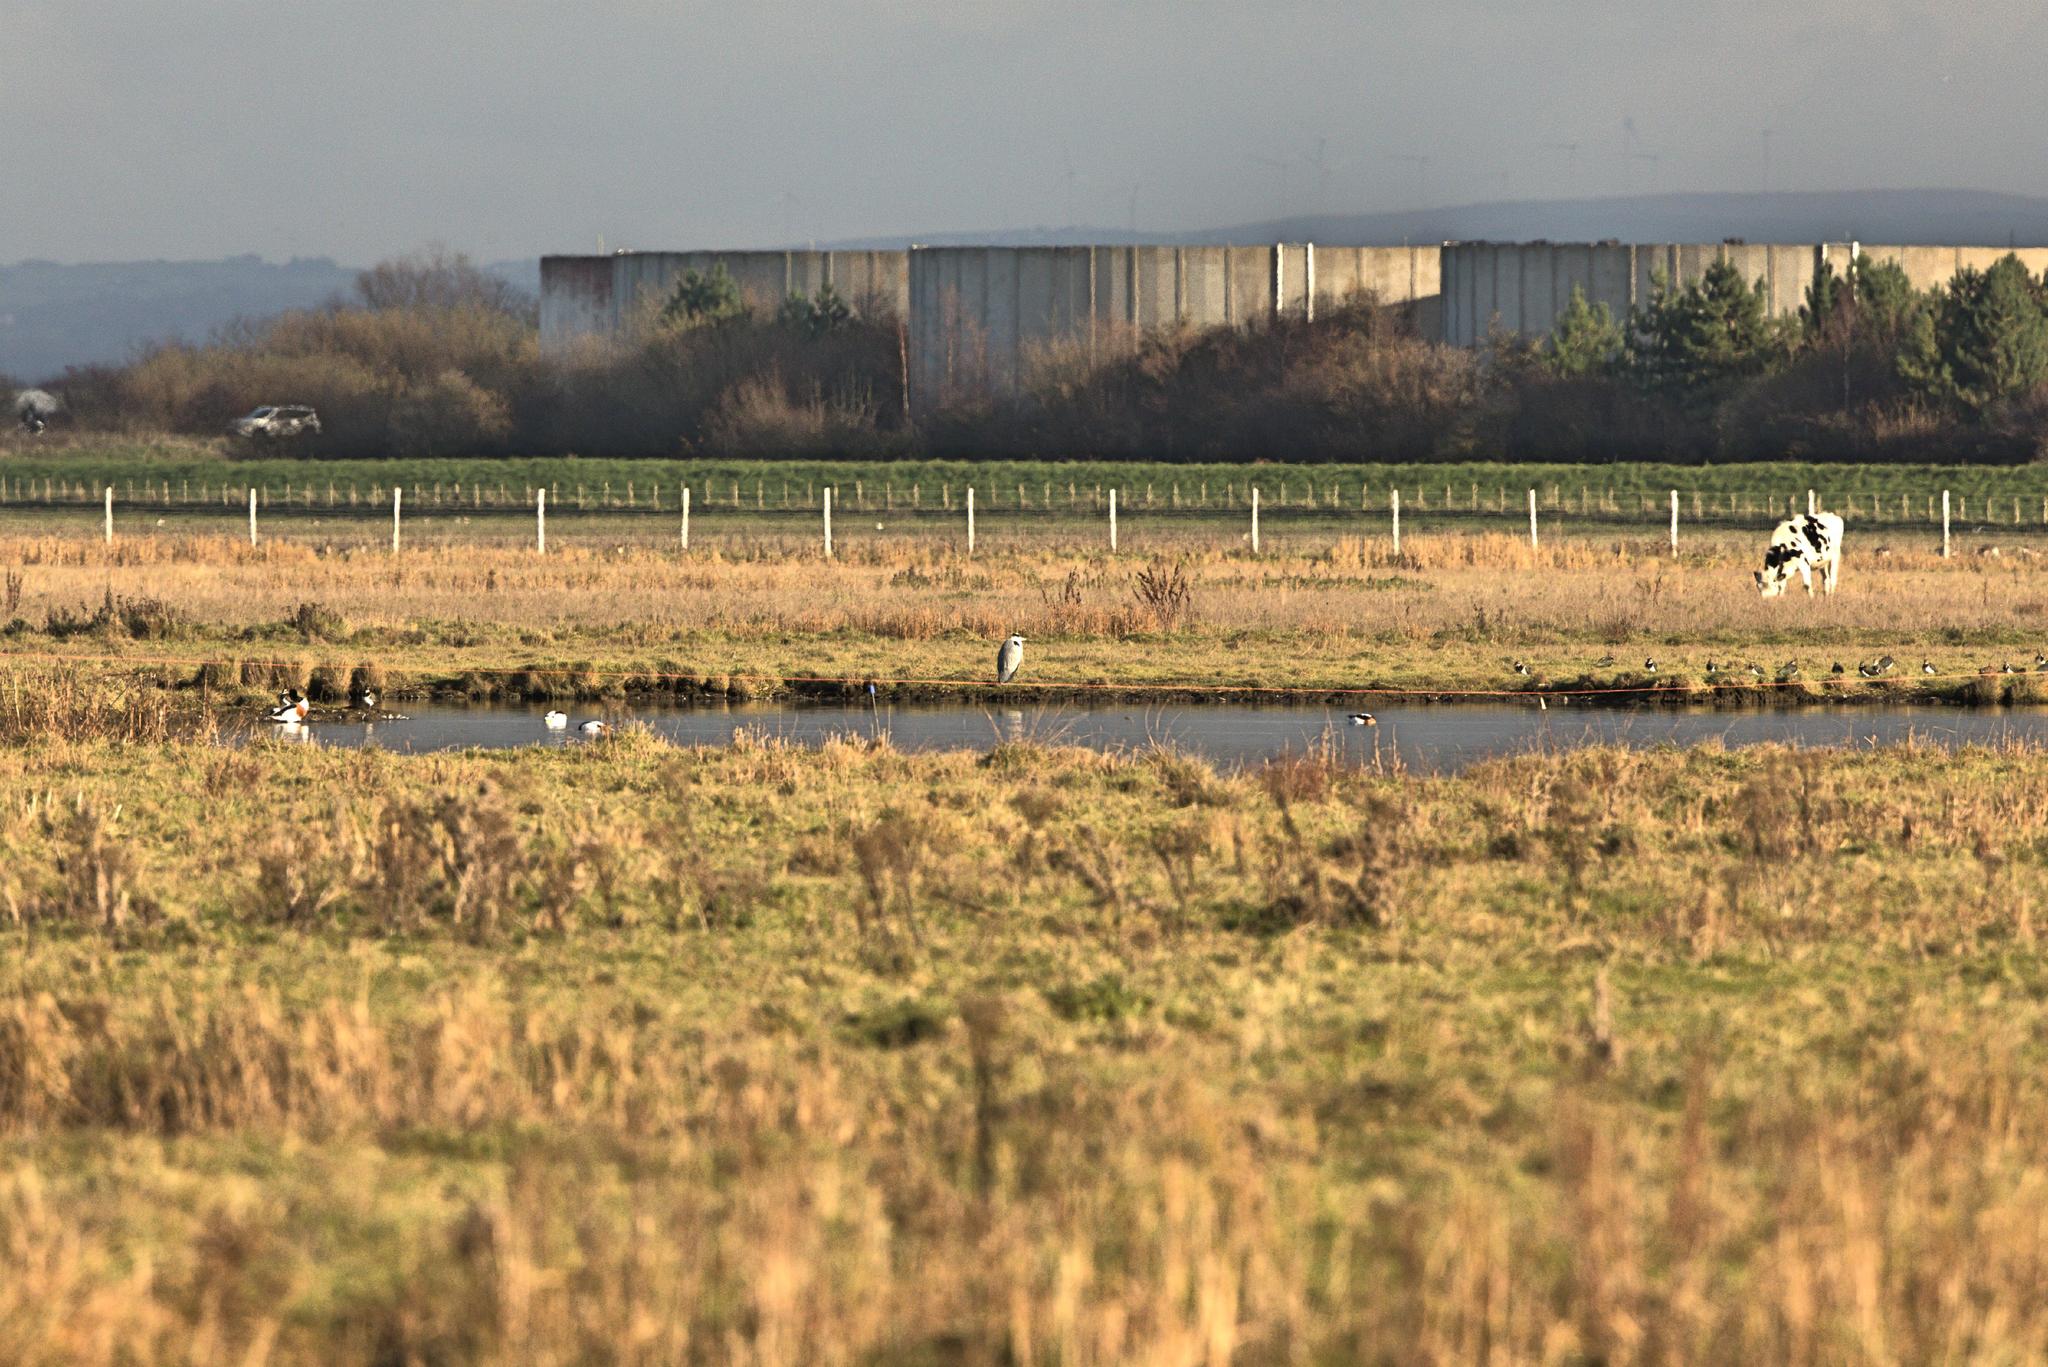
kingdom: Animalia
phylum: Chordata
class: Aves
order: Pelecaniformes
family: Ardeidae
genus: Ardea
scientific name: Ardea cinerea
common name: Grey heron
